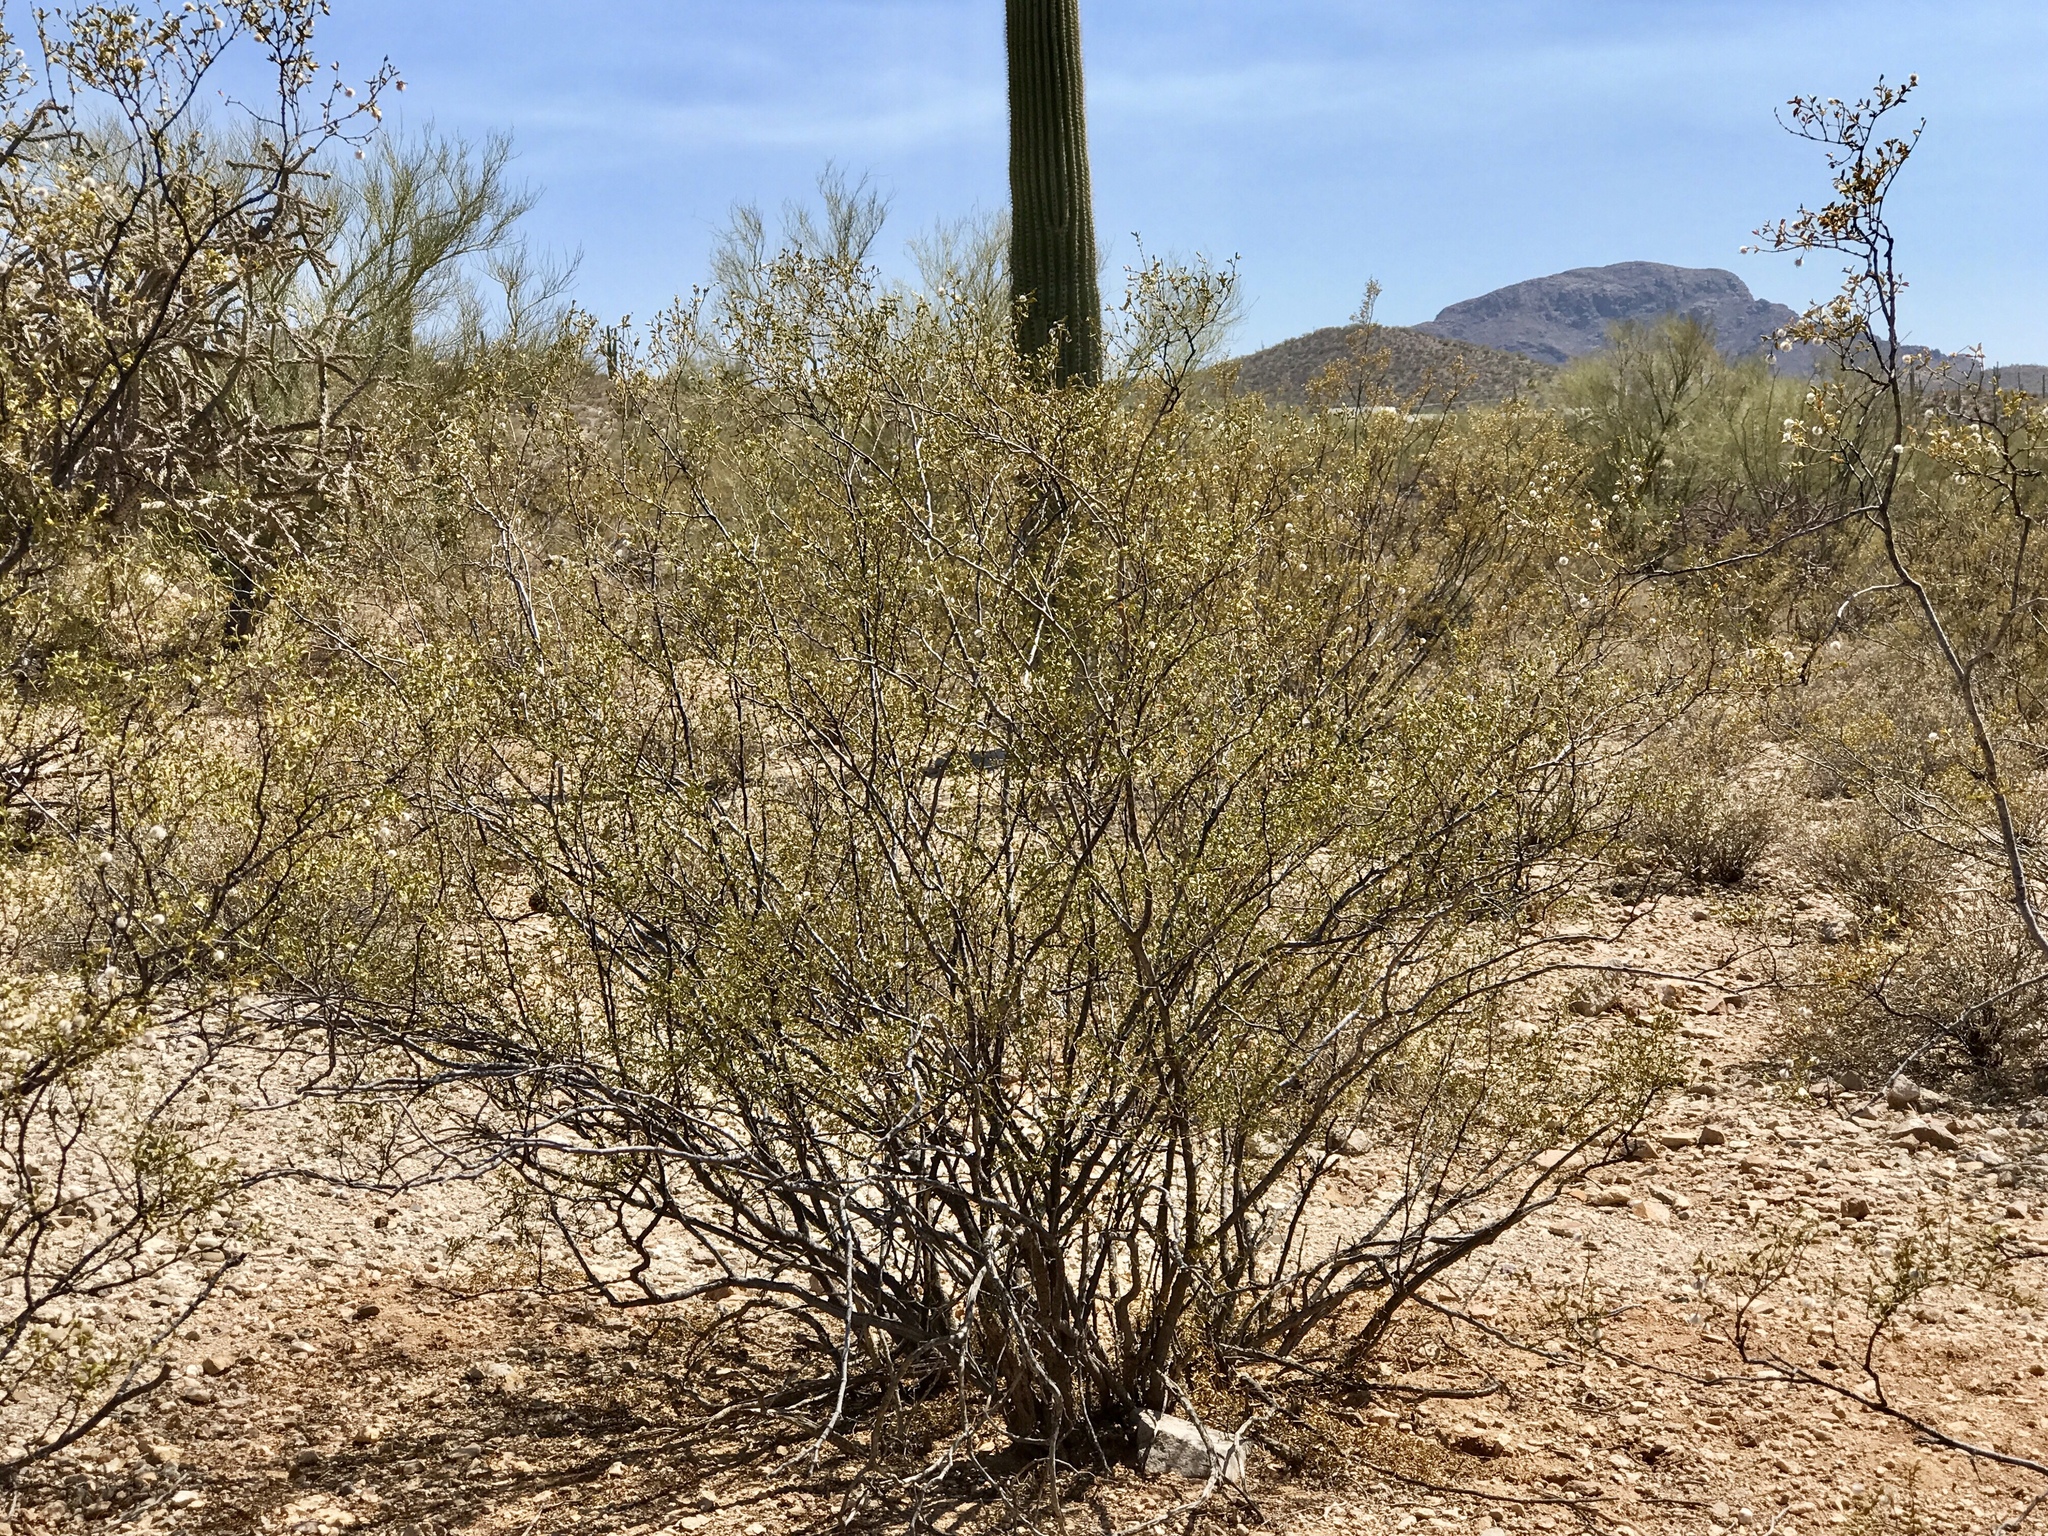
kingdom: Plantae
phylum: Tracheophyta
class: Magnoliopsida
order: Zygophyllales
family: Zygophyllaceae
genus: Larrea
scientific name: Larrea tridentata
